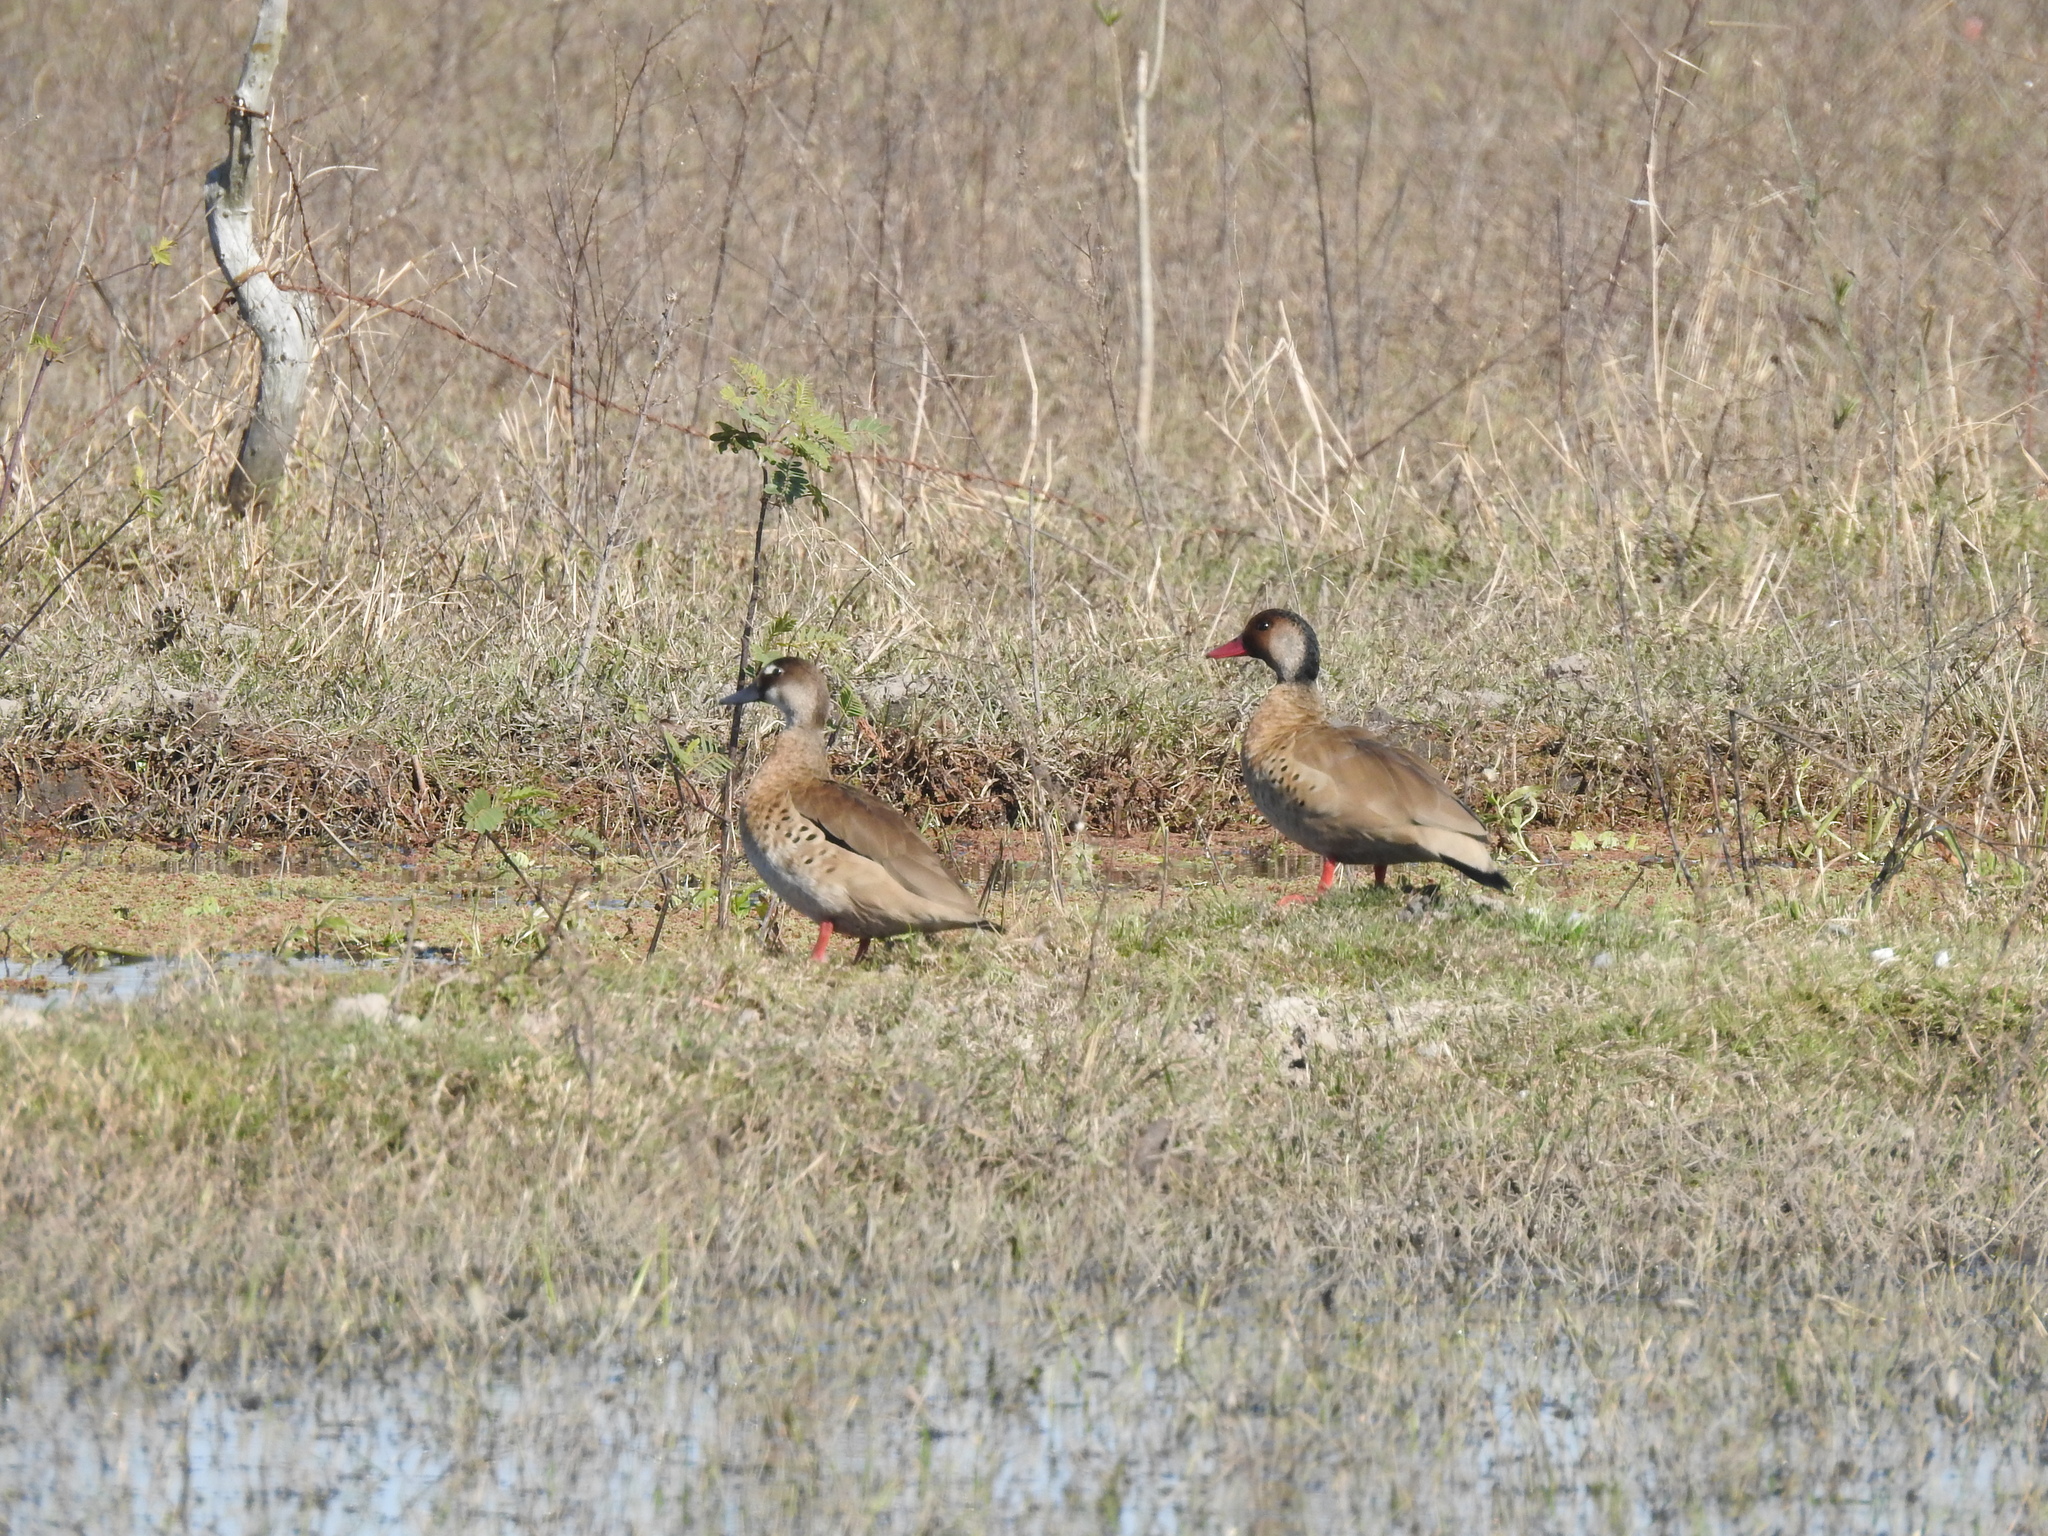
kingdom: Animalia
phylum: Chordata
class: Aves
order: Anseriformes
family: Anatidae
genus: Amazonetta
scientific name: Amazonetta brasiliensis
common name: Brazilian teal
